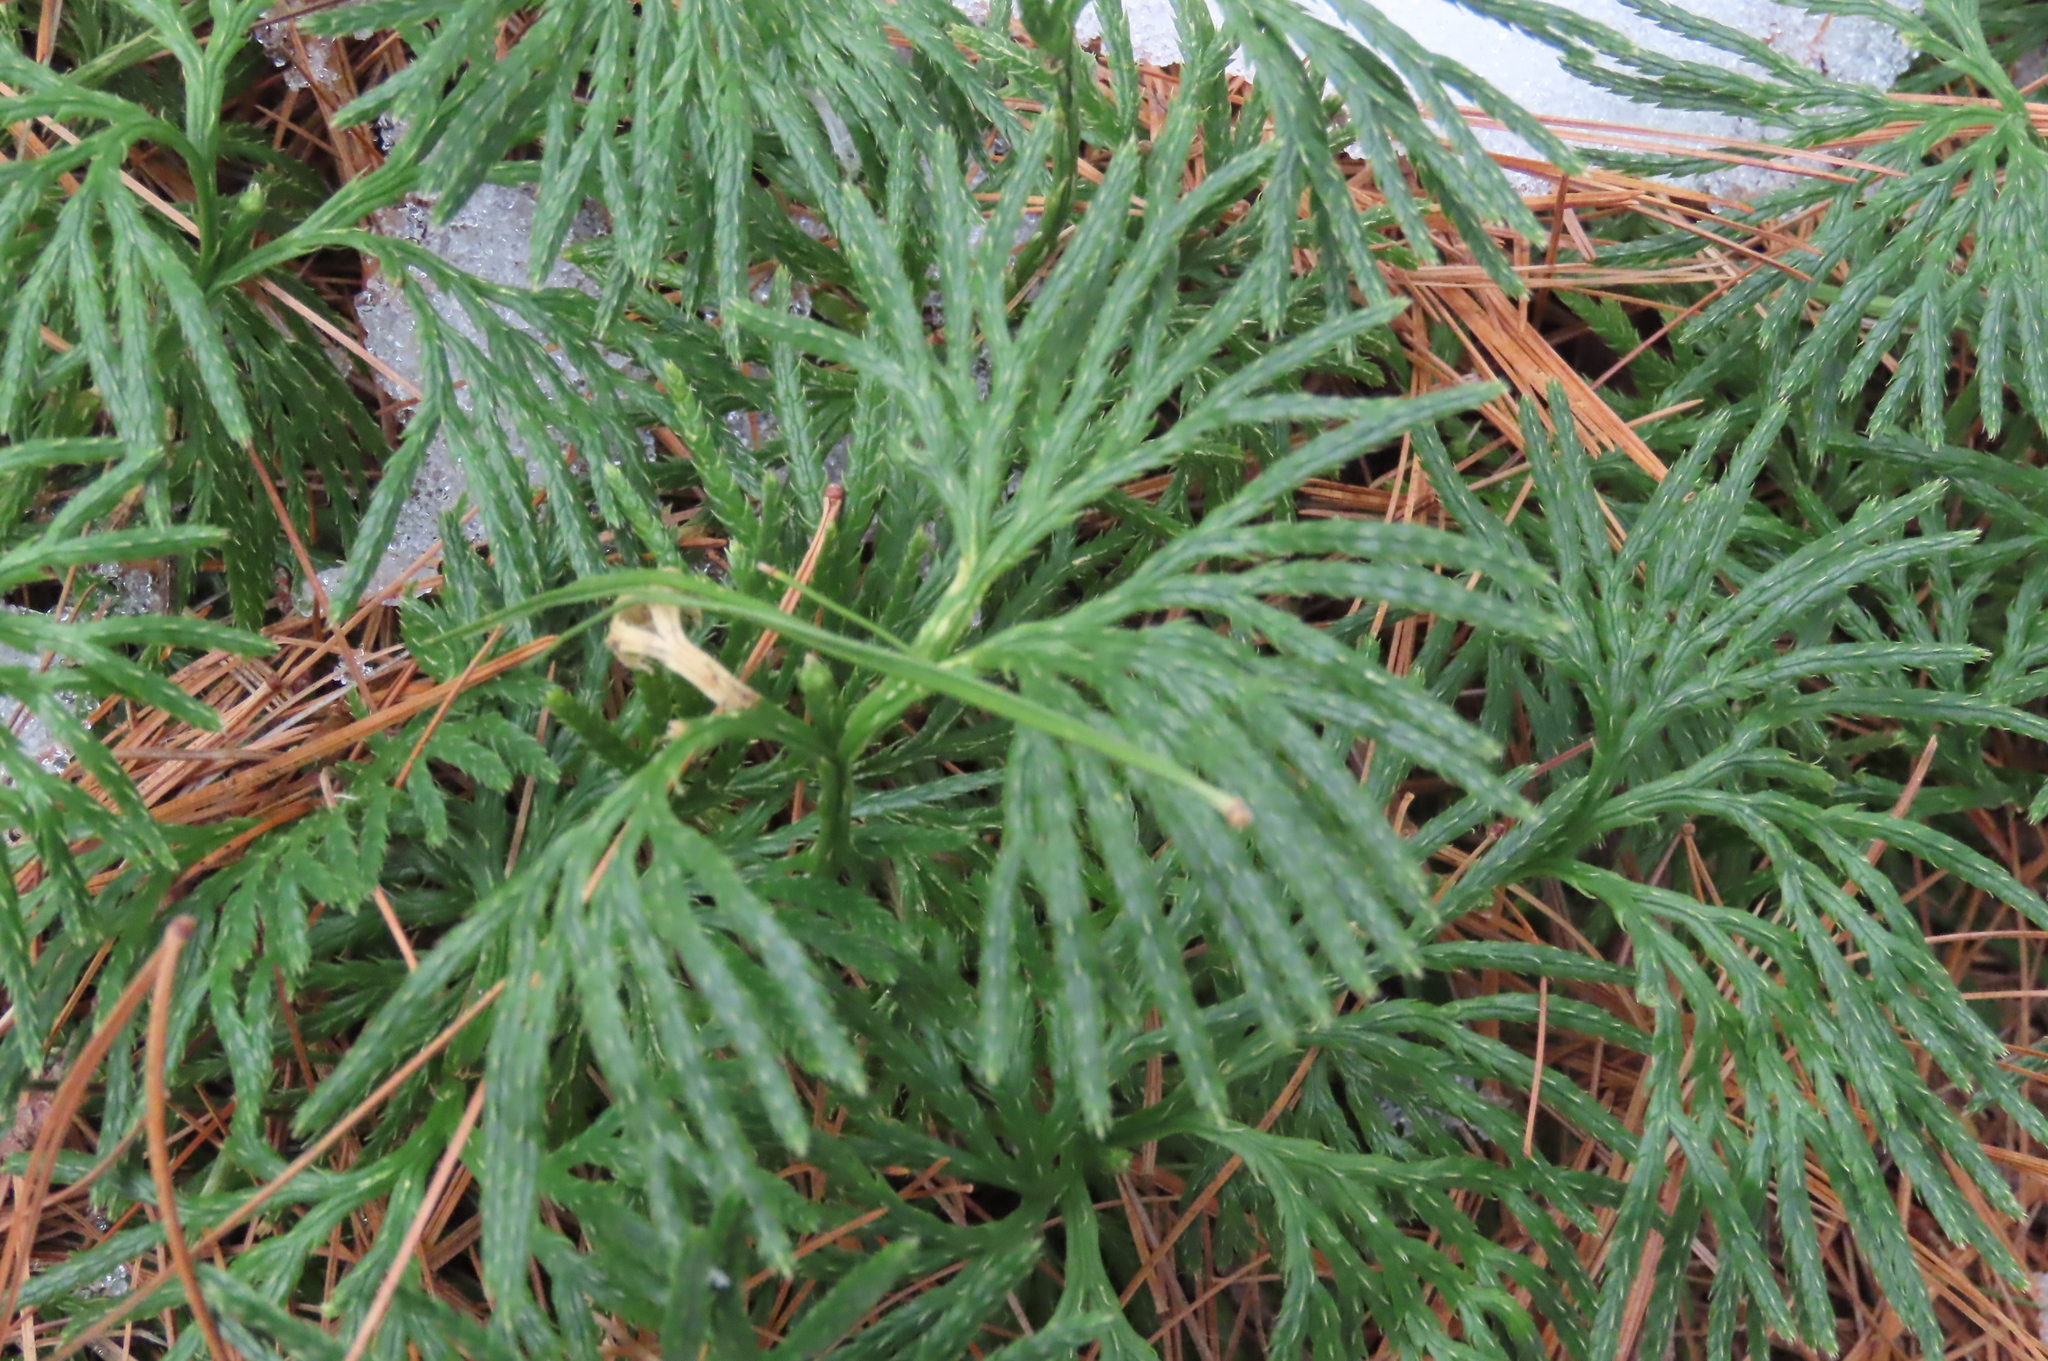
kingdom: Plantae
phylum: Tracheophyta
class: Lycopodiopsida
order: Lycopodiales
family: Lycopodiaceae
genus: Diphasiastrum
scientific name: Diphasiastrum digitatum
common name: Southern running-pine
